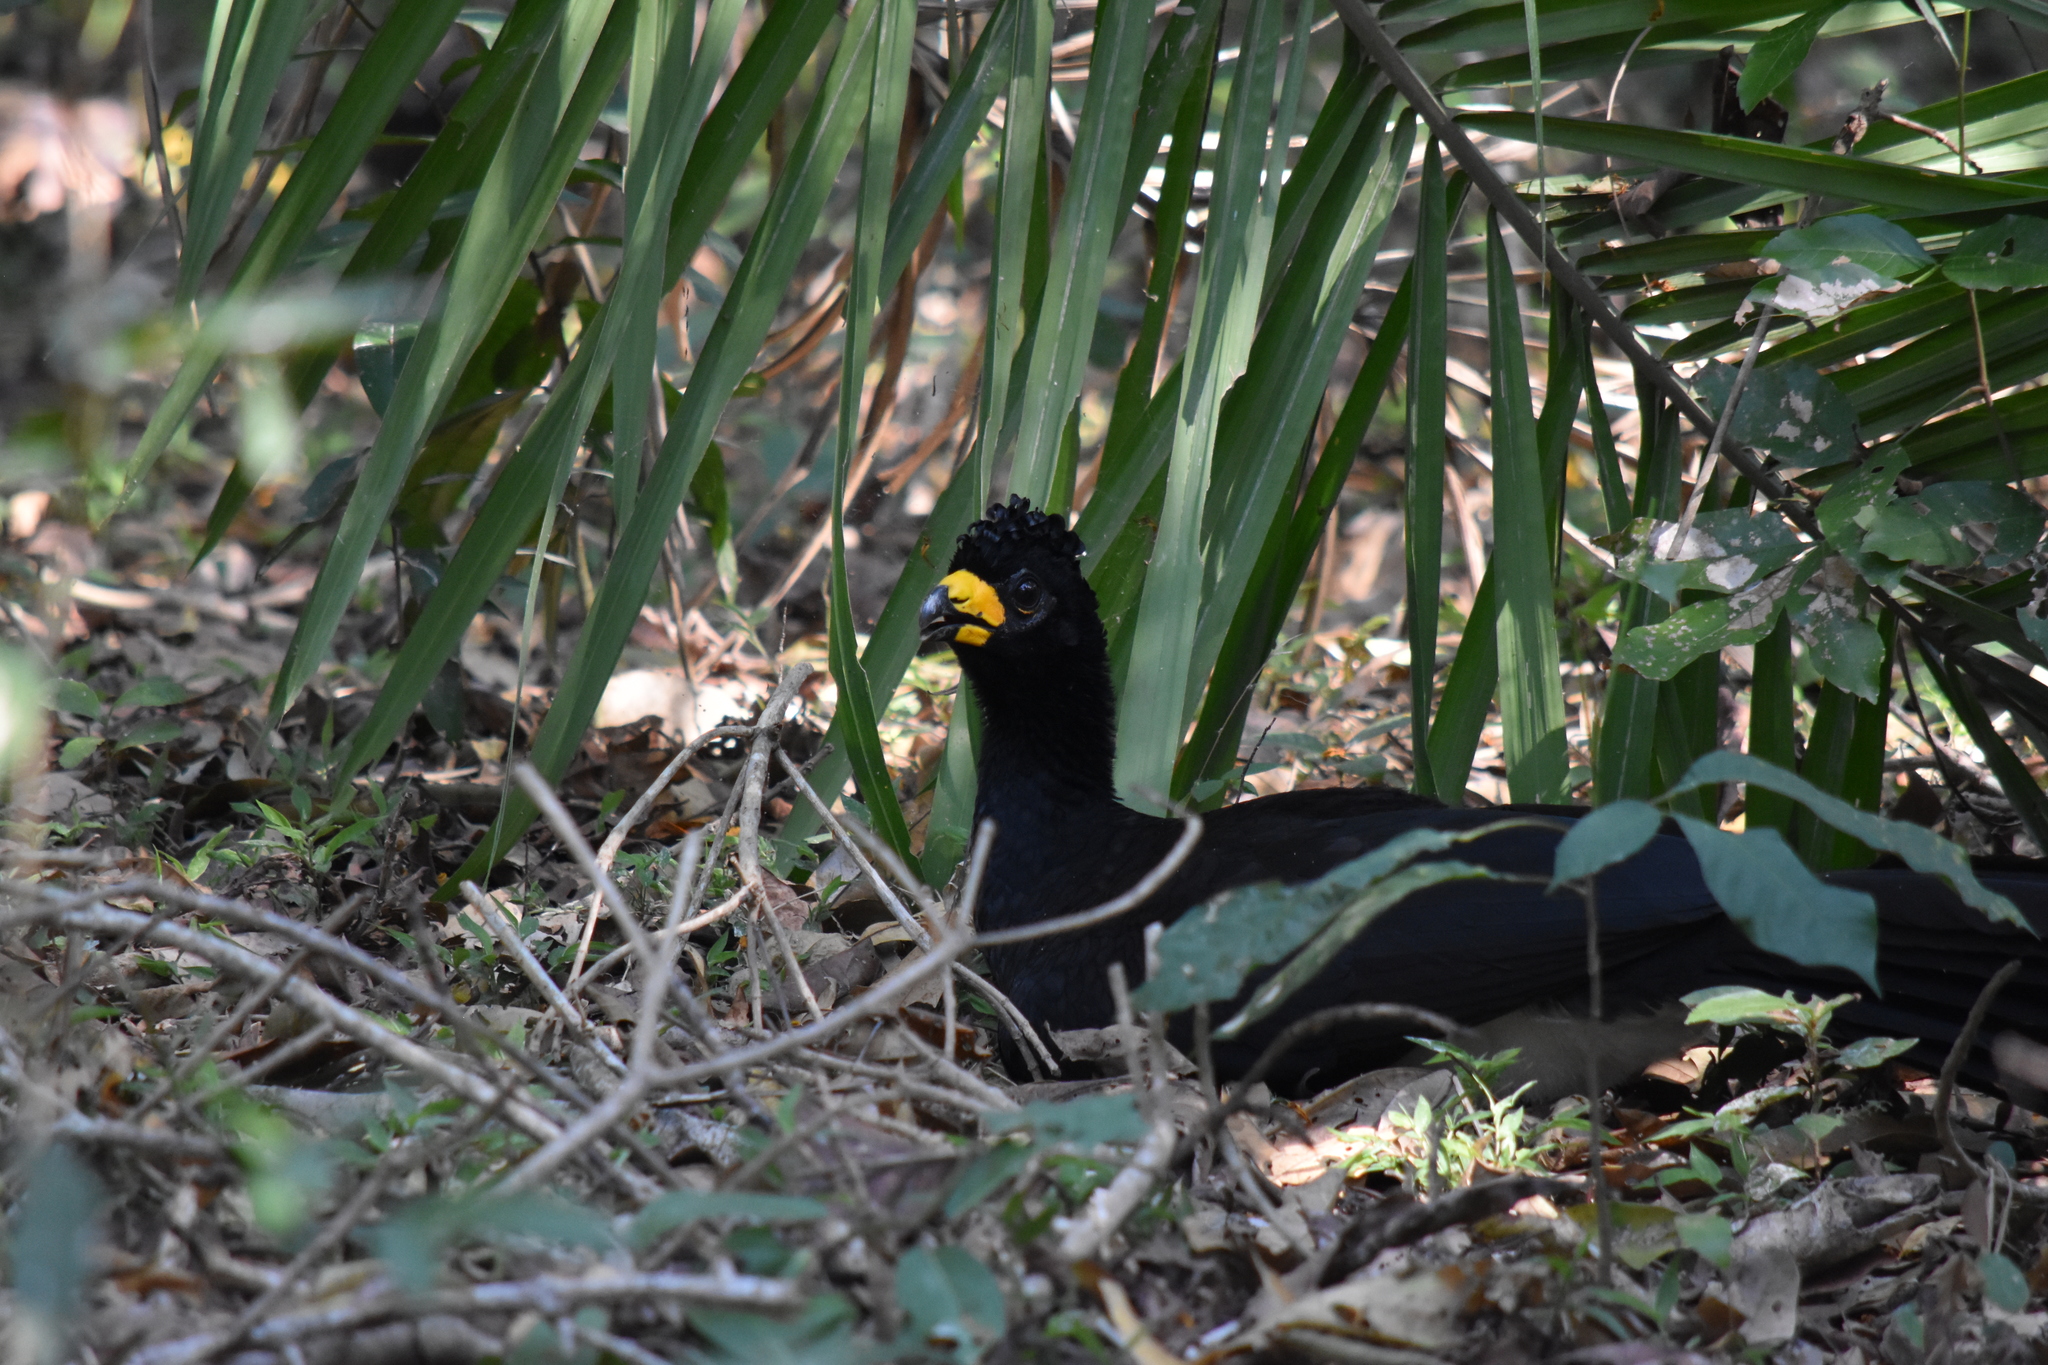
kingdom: Animalia
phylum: Chordata
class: Aves
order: Galliformes
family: Cracidae
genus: Crax
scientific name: Crax fasciolata
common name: Bare-faced curassow
